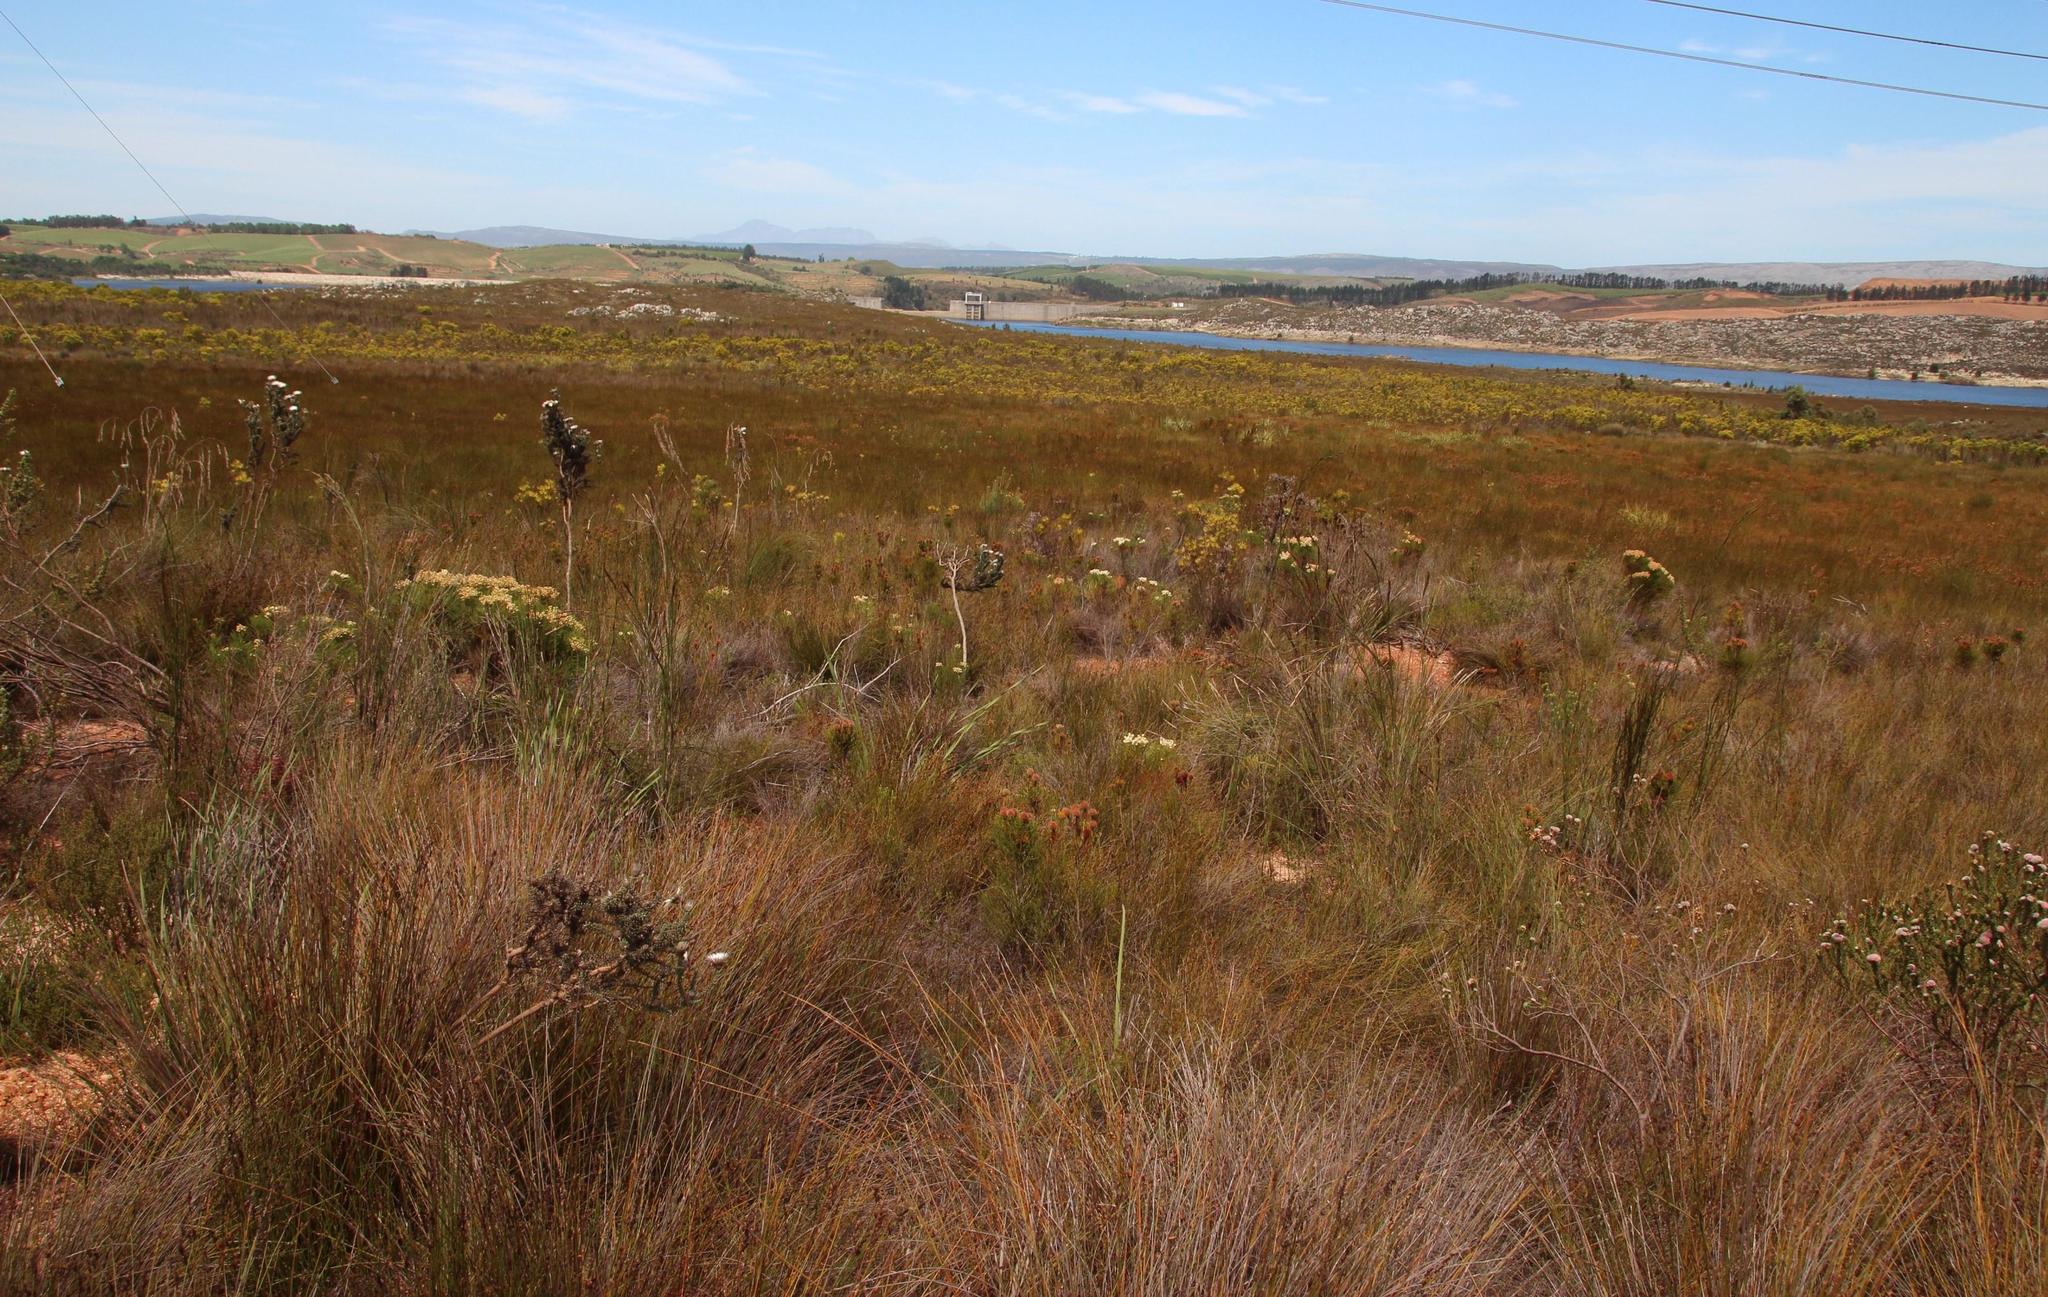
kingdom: Plantae
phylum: Tracheophyta
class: Magnoliopsida
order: Bruniales
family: Bruniaceae
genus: Berzelia
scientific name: Berzelia lanuginosa
